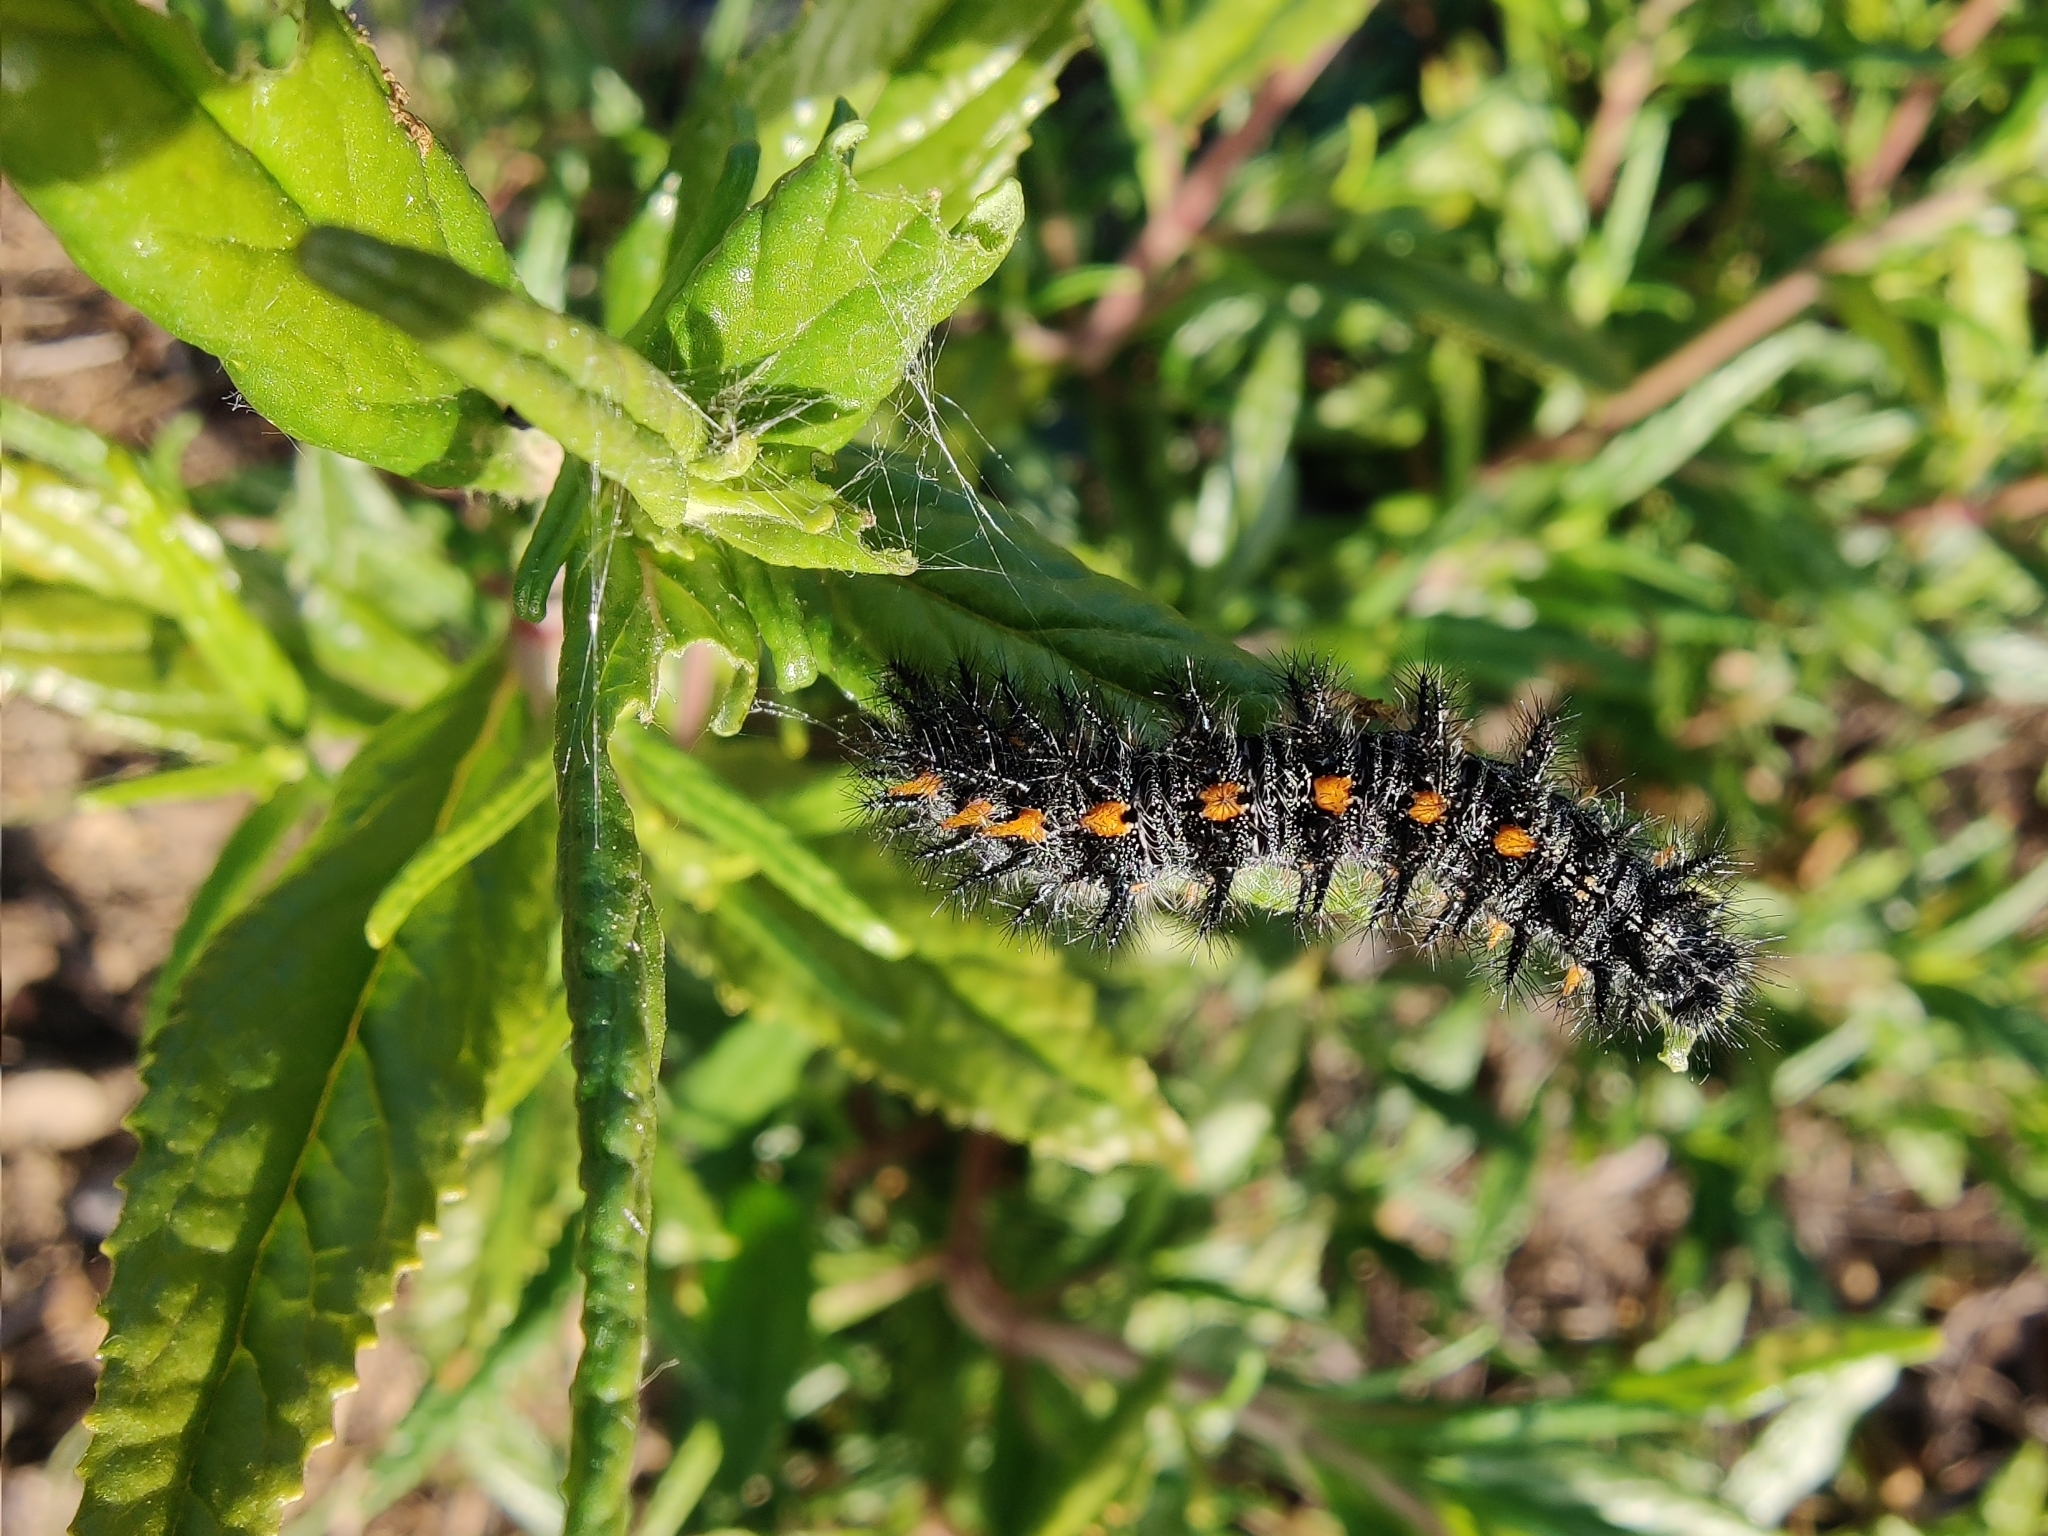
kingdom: Animalia
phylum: Arthropoda
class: Insecta
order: Lepidoptera
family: Nymphalidae
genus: Occidryas
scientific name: Occidryas chalcedona
